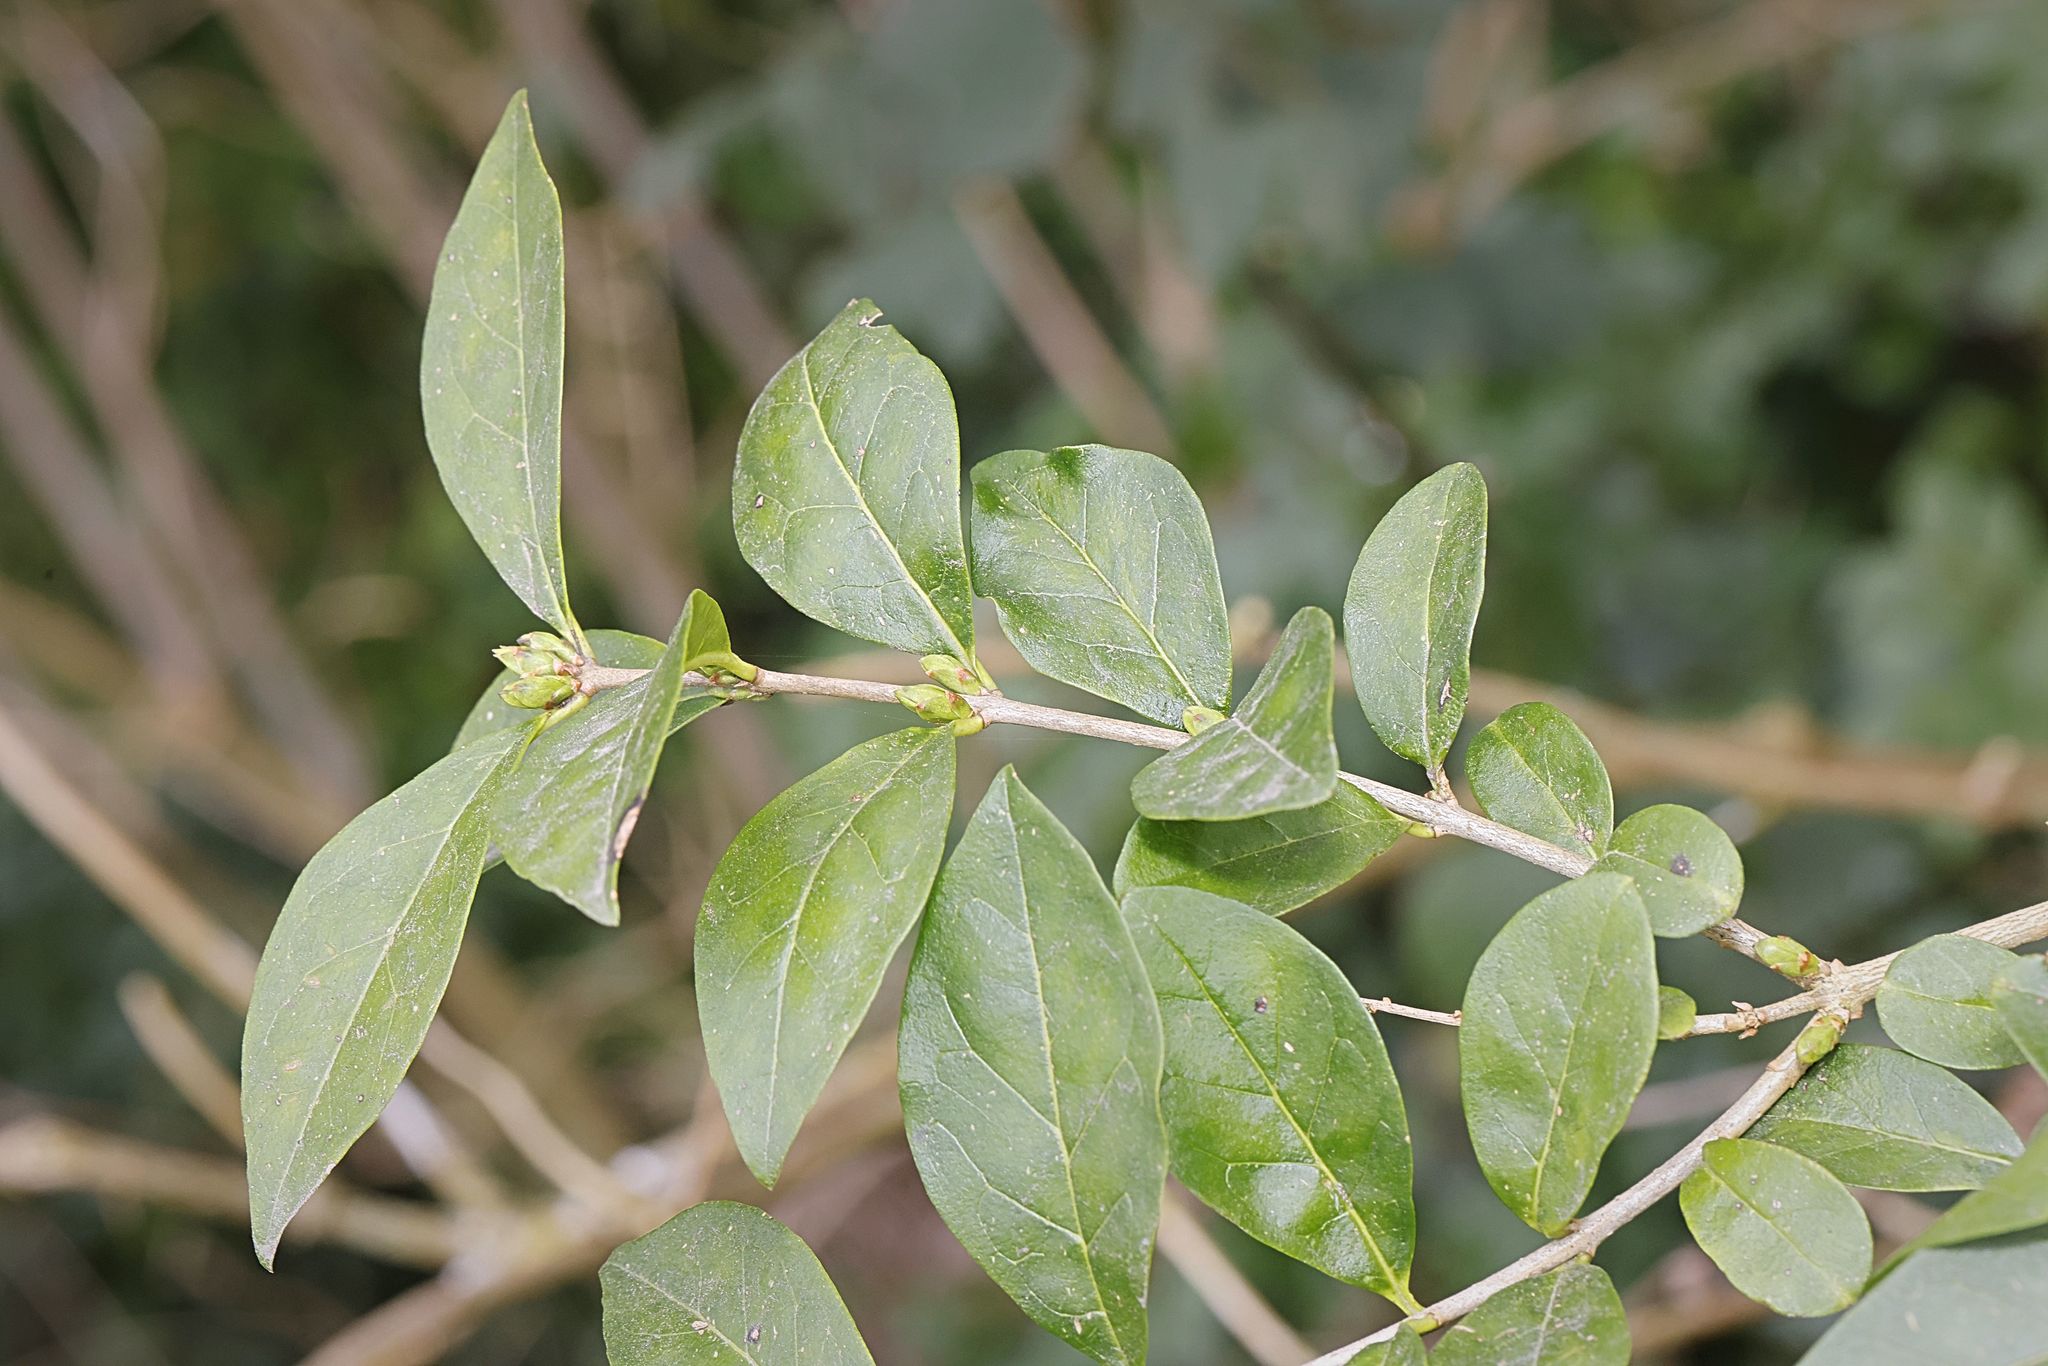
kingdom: Plantae
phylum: Tracheophyta
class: Magnoliopsida
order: Lamiales
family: Oleaceae
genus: Ligustrum
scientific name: Ligustrum ovalifolium
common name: California privet
